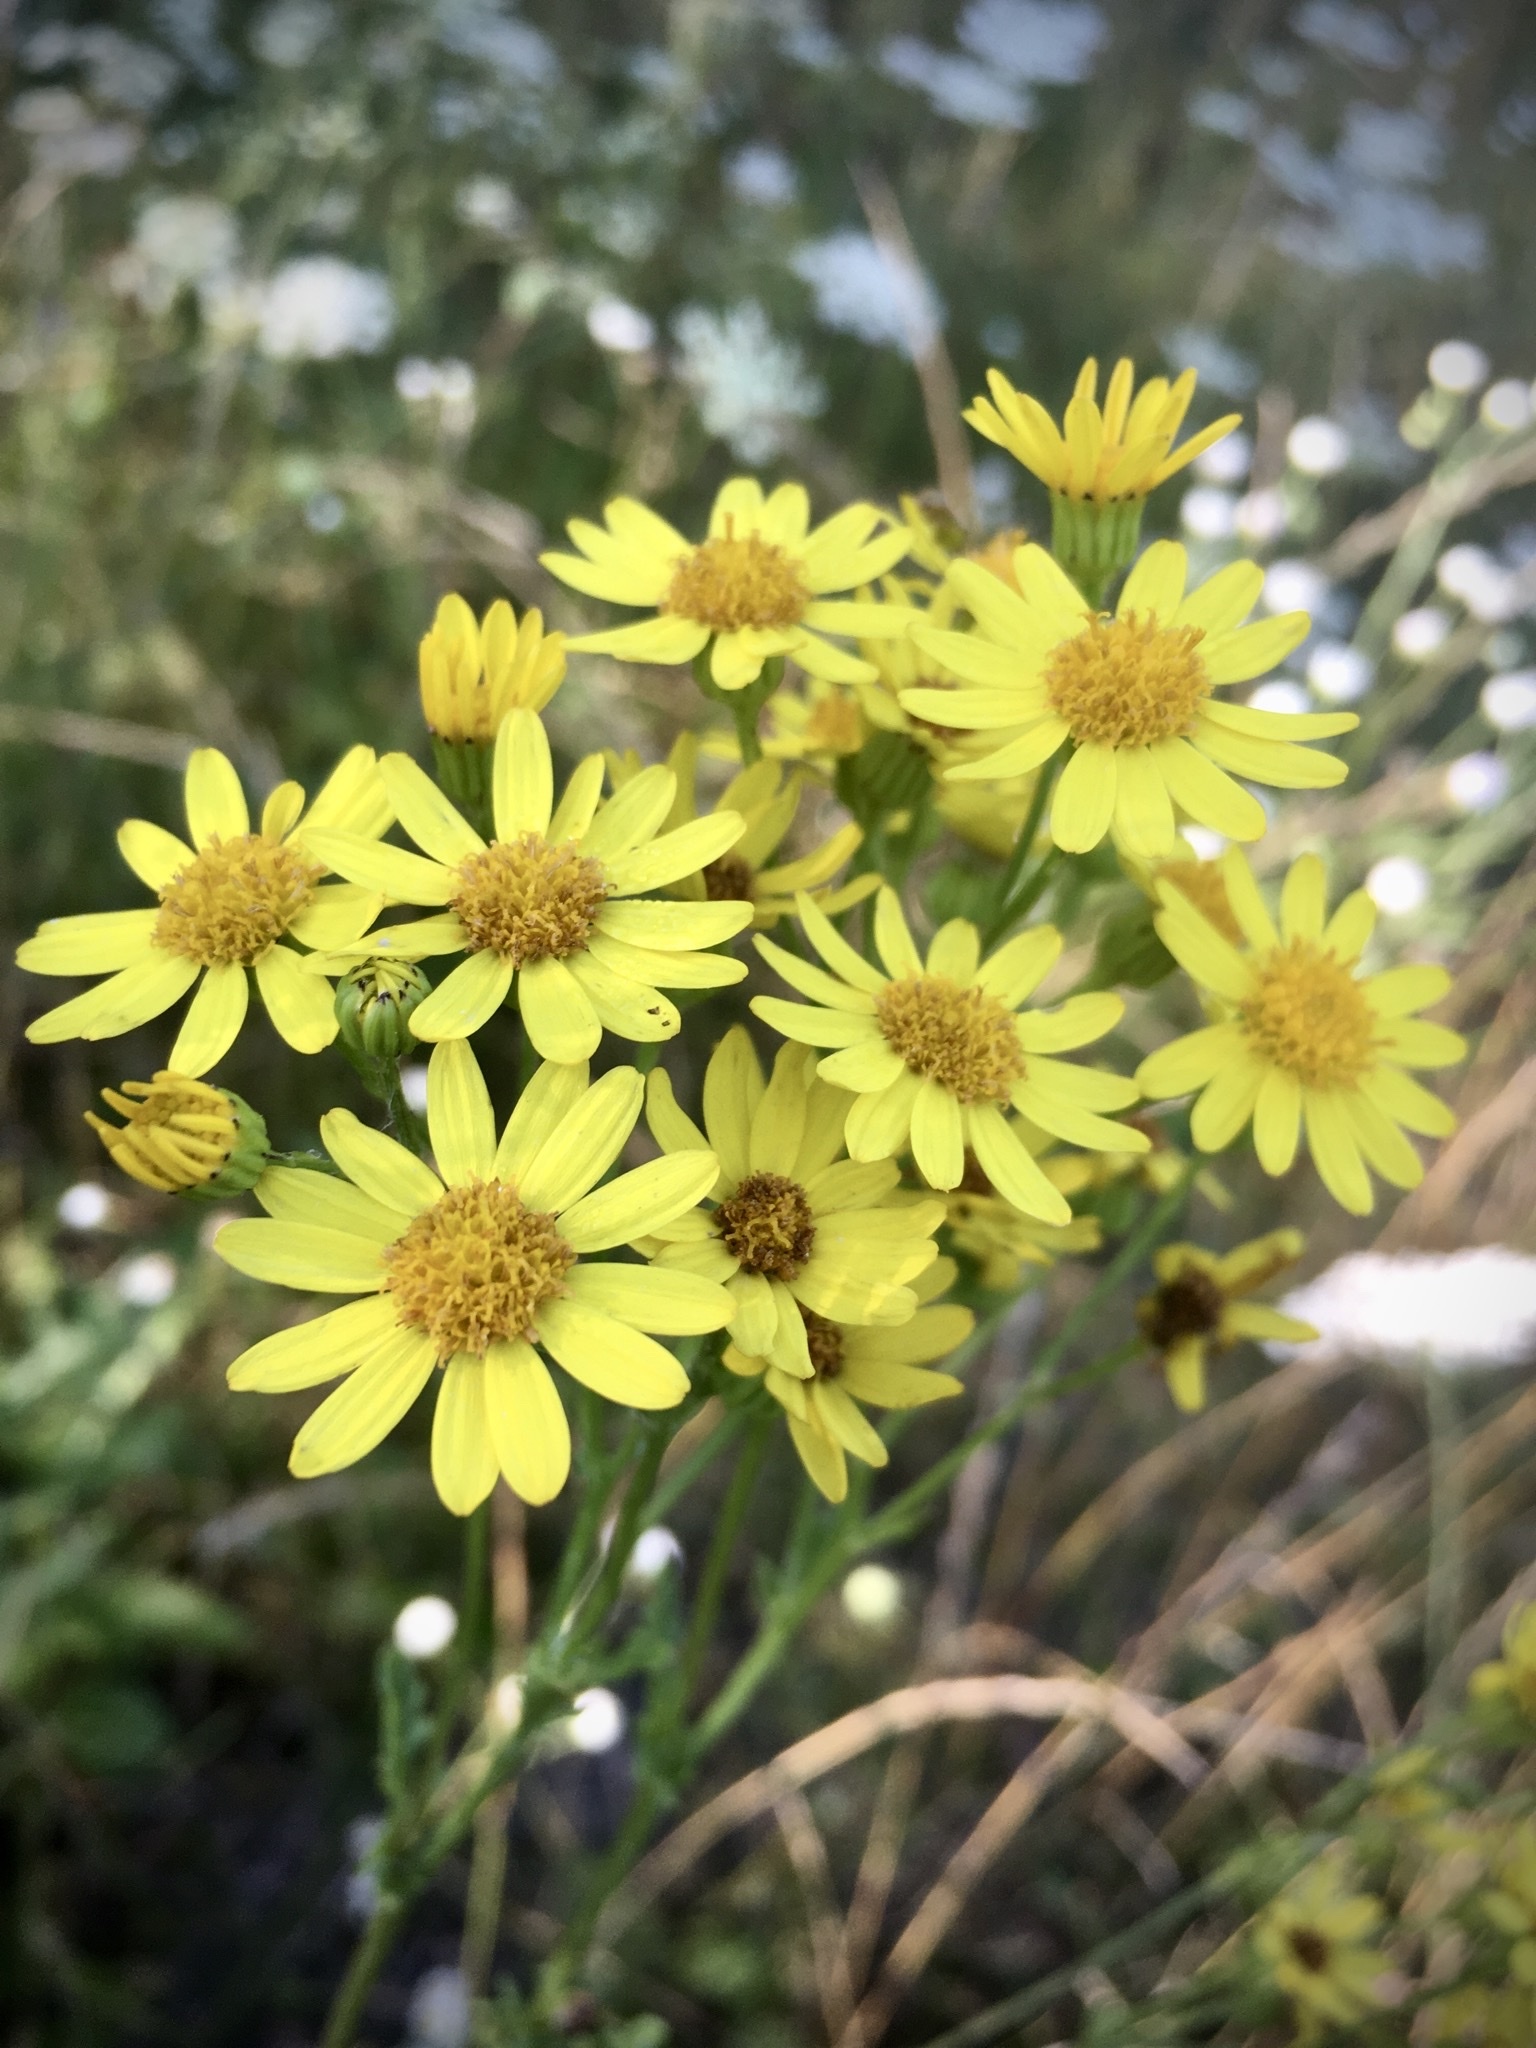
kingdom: Plantae
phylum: Tracheophyta
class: Magnoliopsida
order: Asterales
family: Asteraceae
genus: Jacobaea
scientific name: Jacobaea vulgaris
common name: Stinking willie
